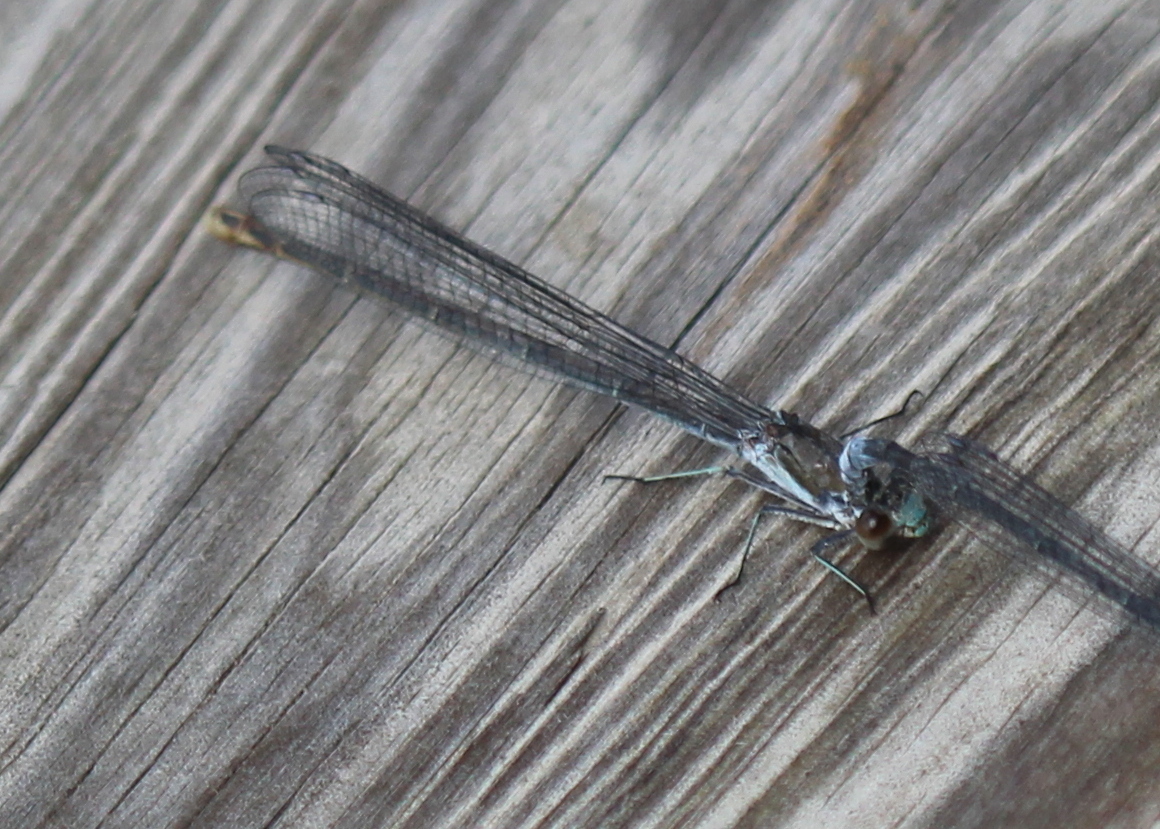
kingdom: Animalia
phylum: Arthropoda
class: Insecta
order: Odonata
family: Coenagrionidae
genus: Argia
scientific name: Argia moesta
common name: Powdered dancer
